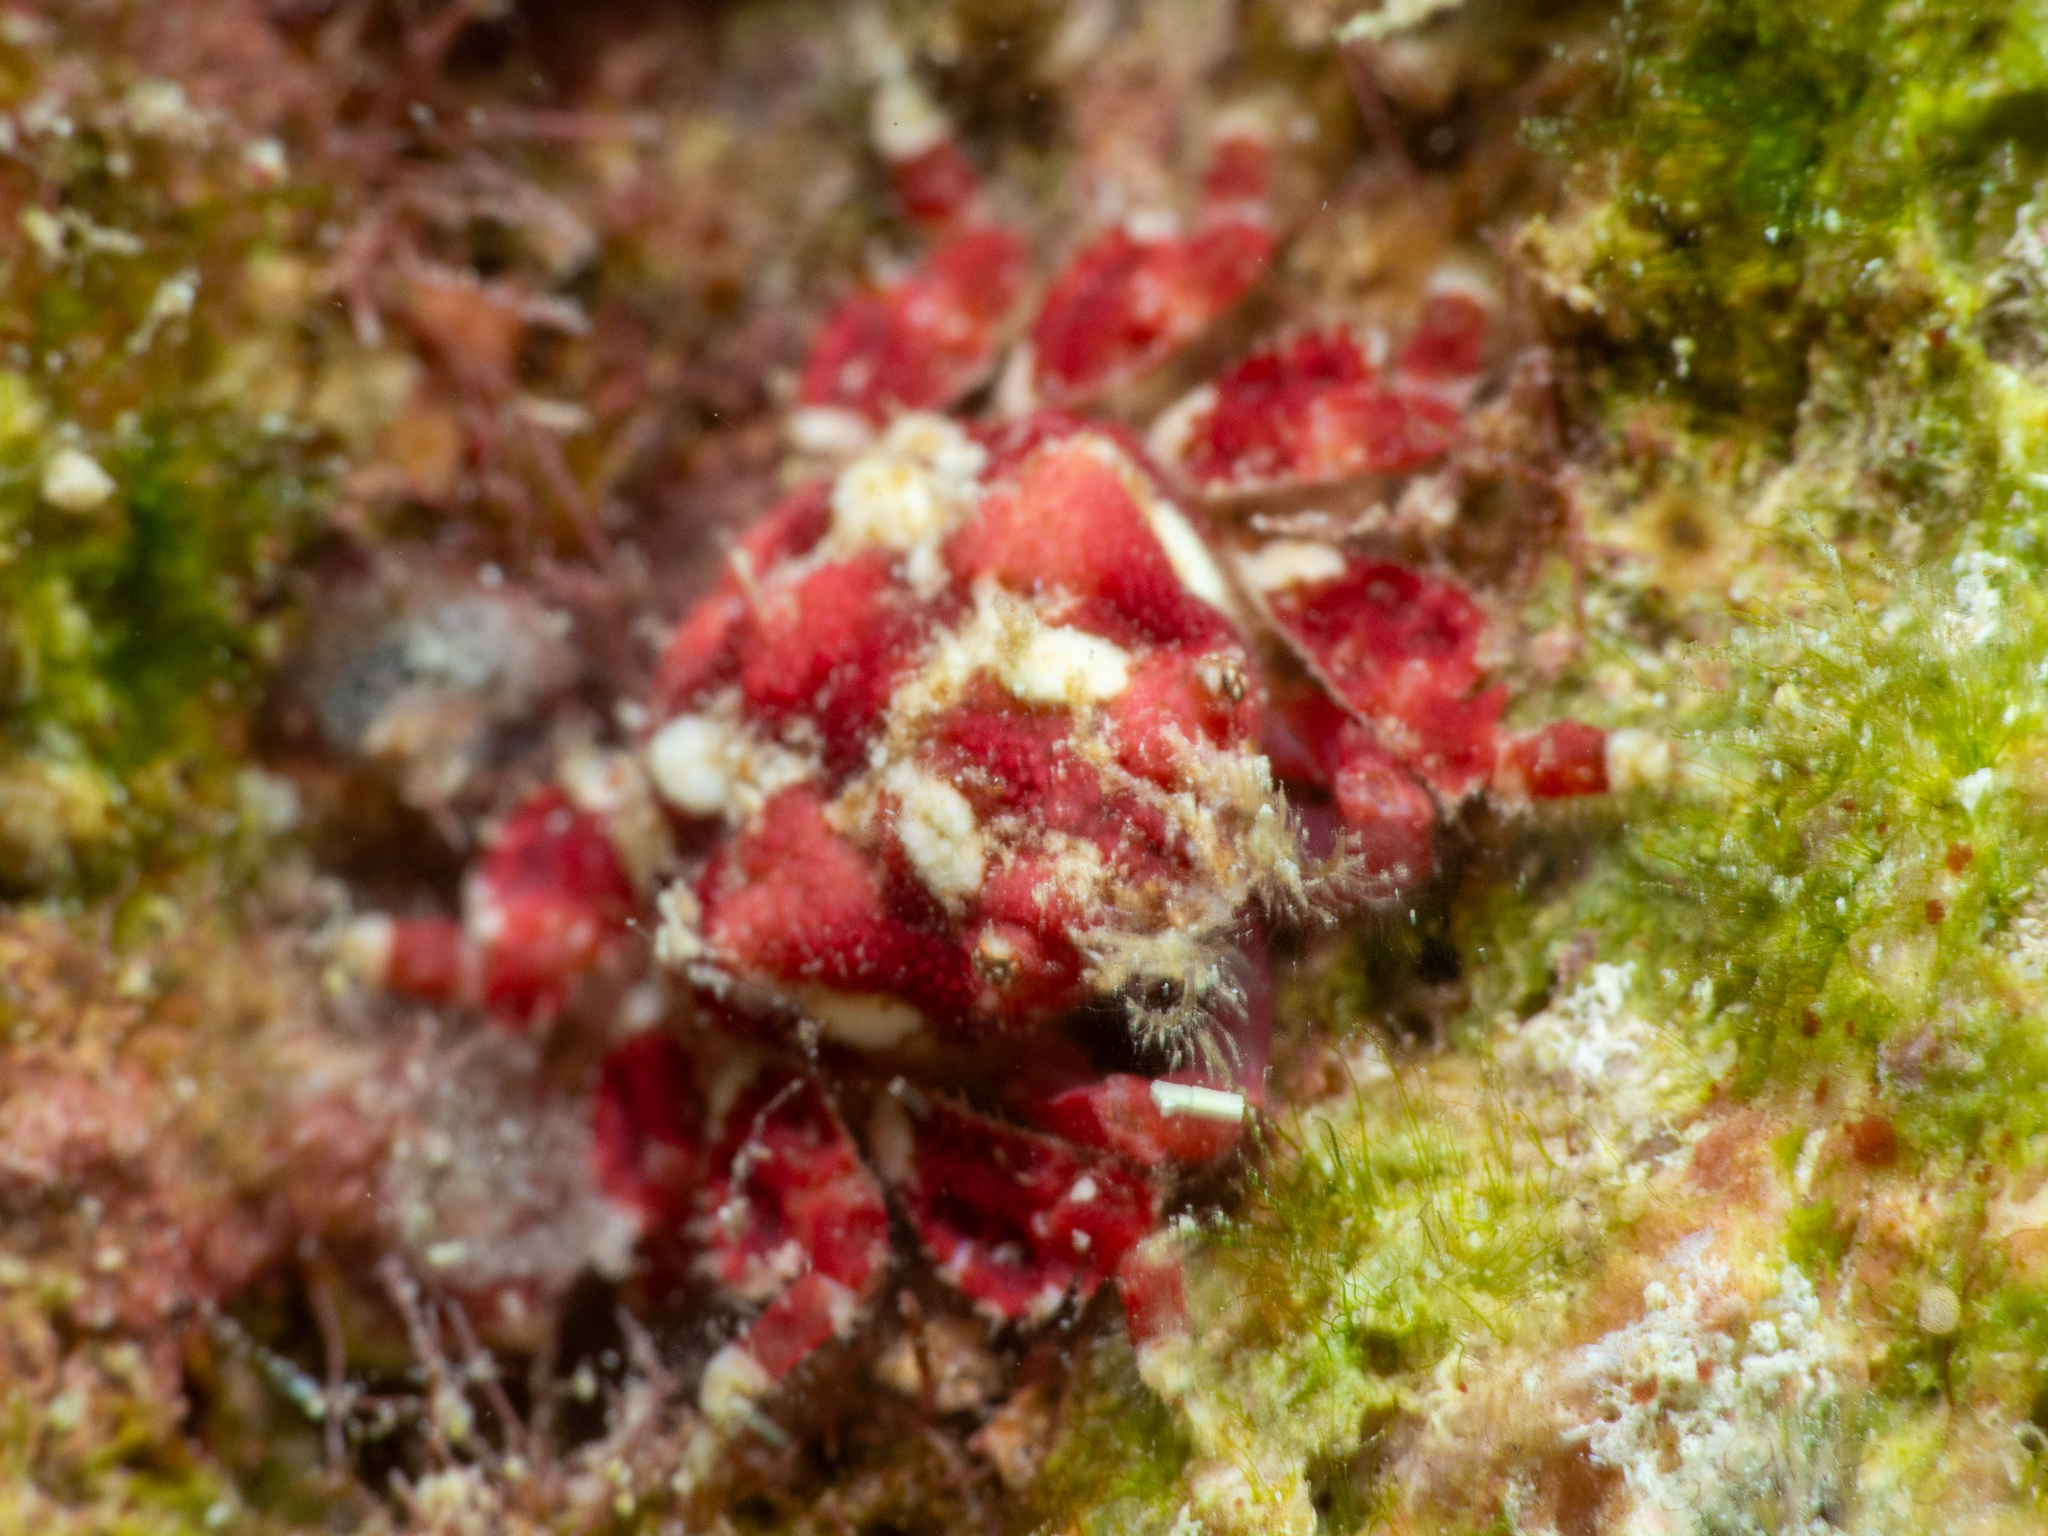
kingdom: Animalia
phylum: Arthropoda
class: Malacostraca
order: Decapoda
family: Mithracidae
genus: Thoe
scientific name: Thoe puella
